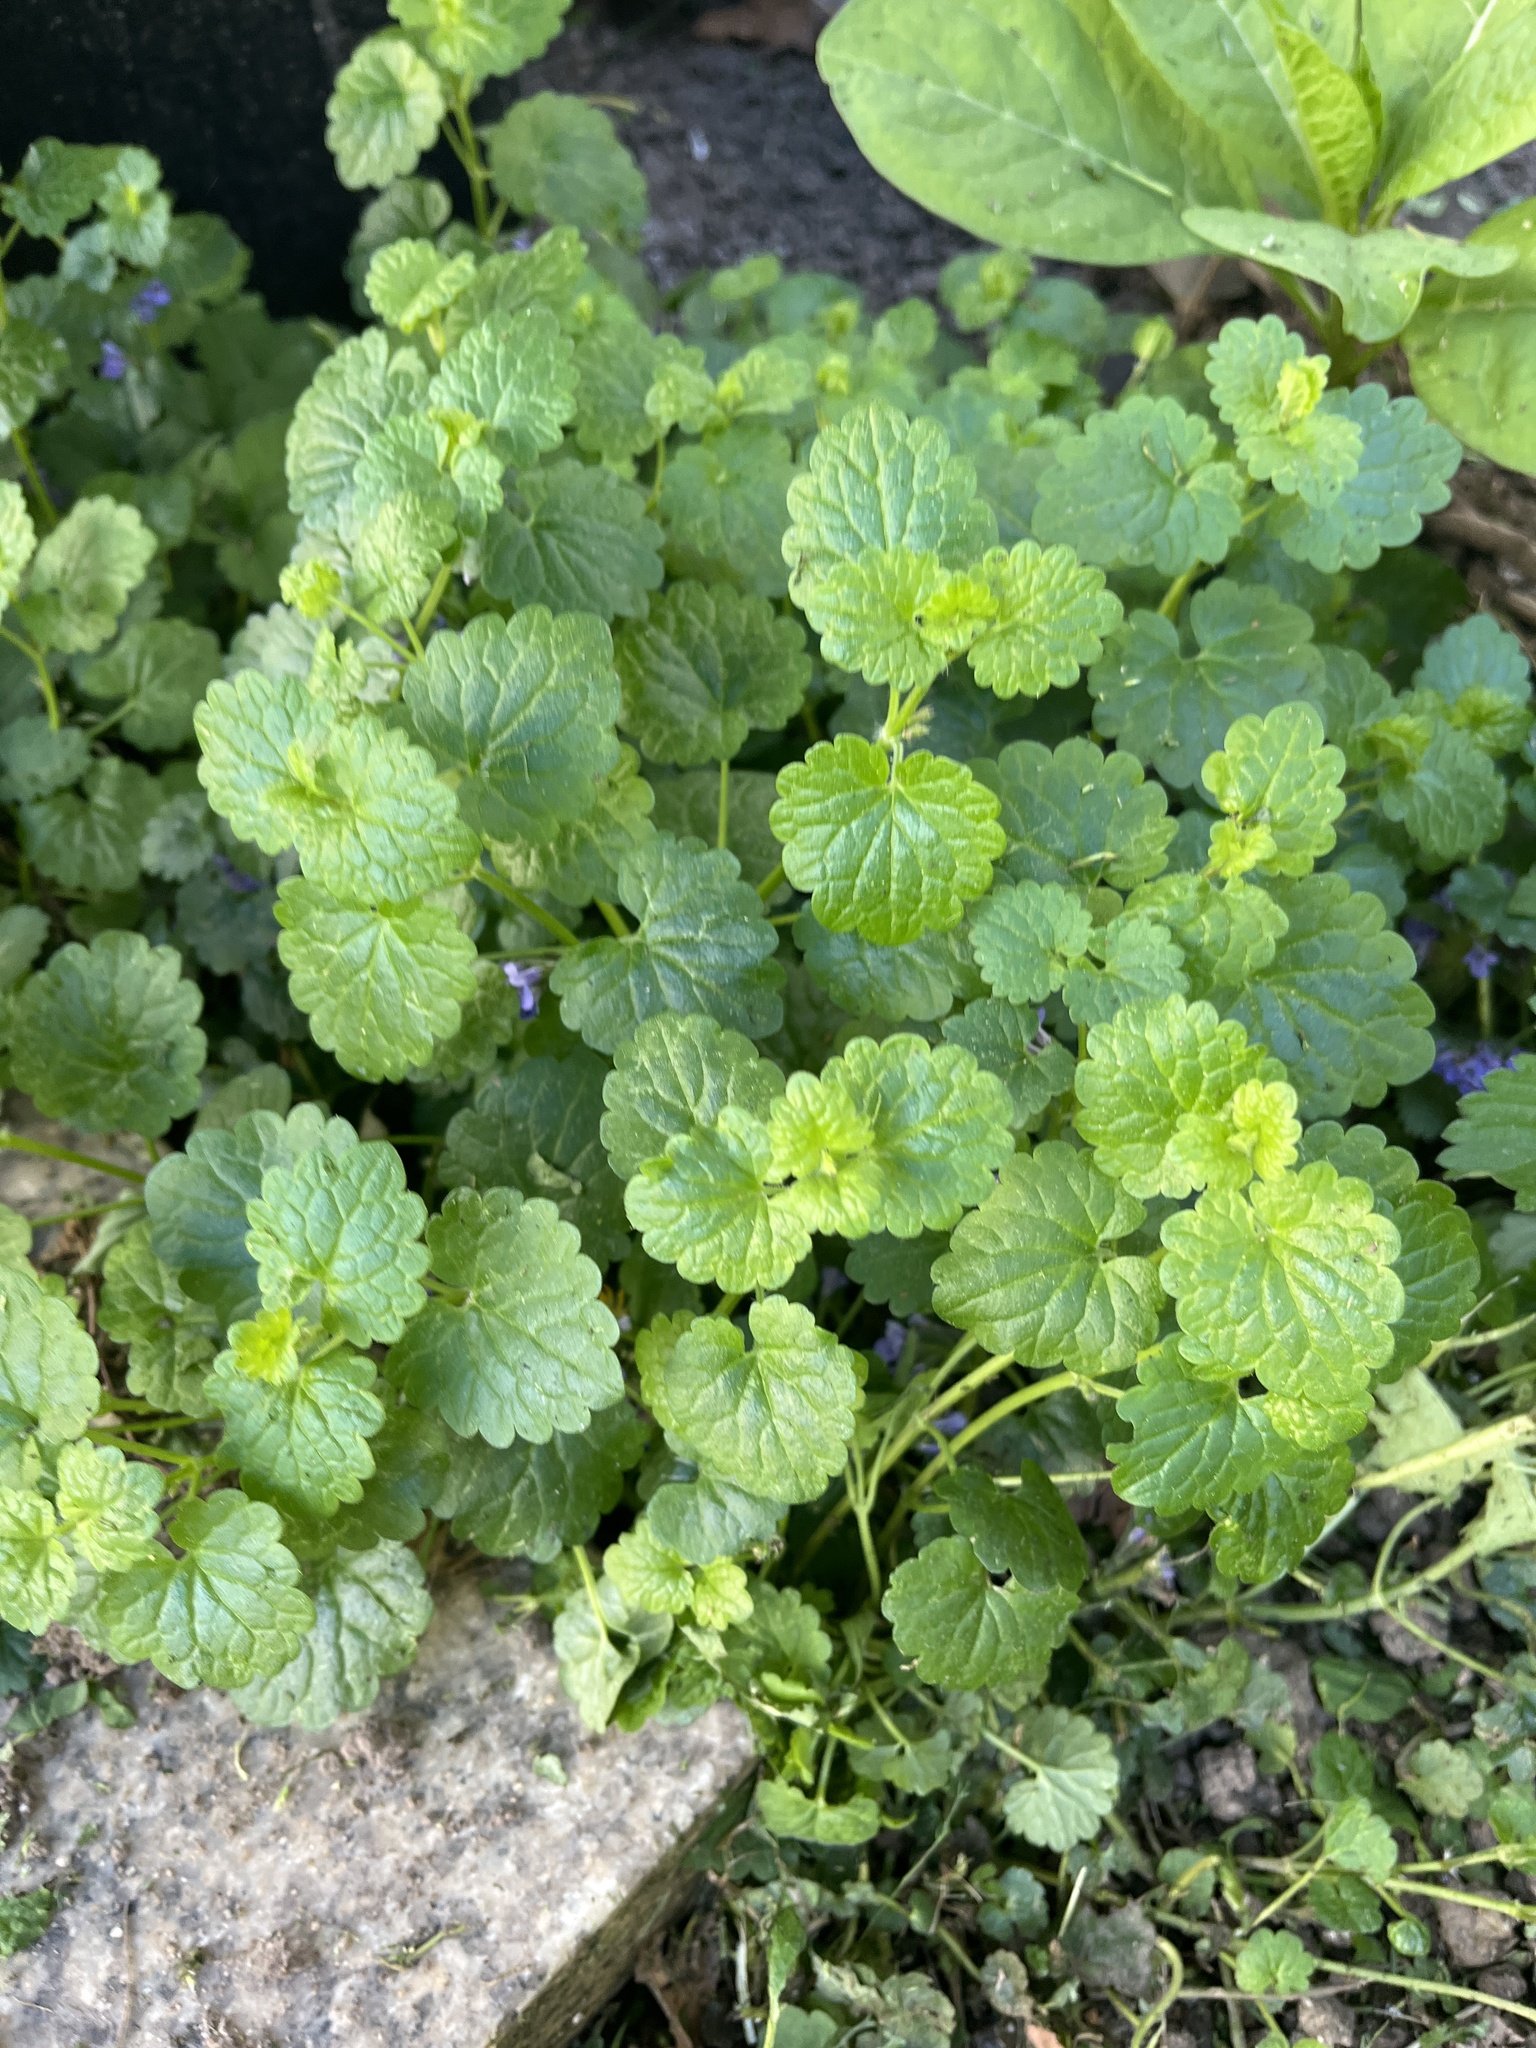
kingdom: Plantae
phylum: Tracheophyta
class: Magnoliopsida
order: Lamiales
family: Lamiaceae
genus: Glechoma
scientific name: Glechoma hederacea
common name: Ground ivy
